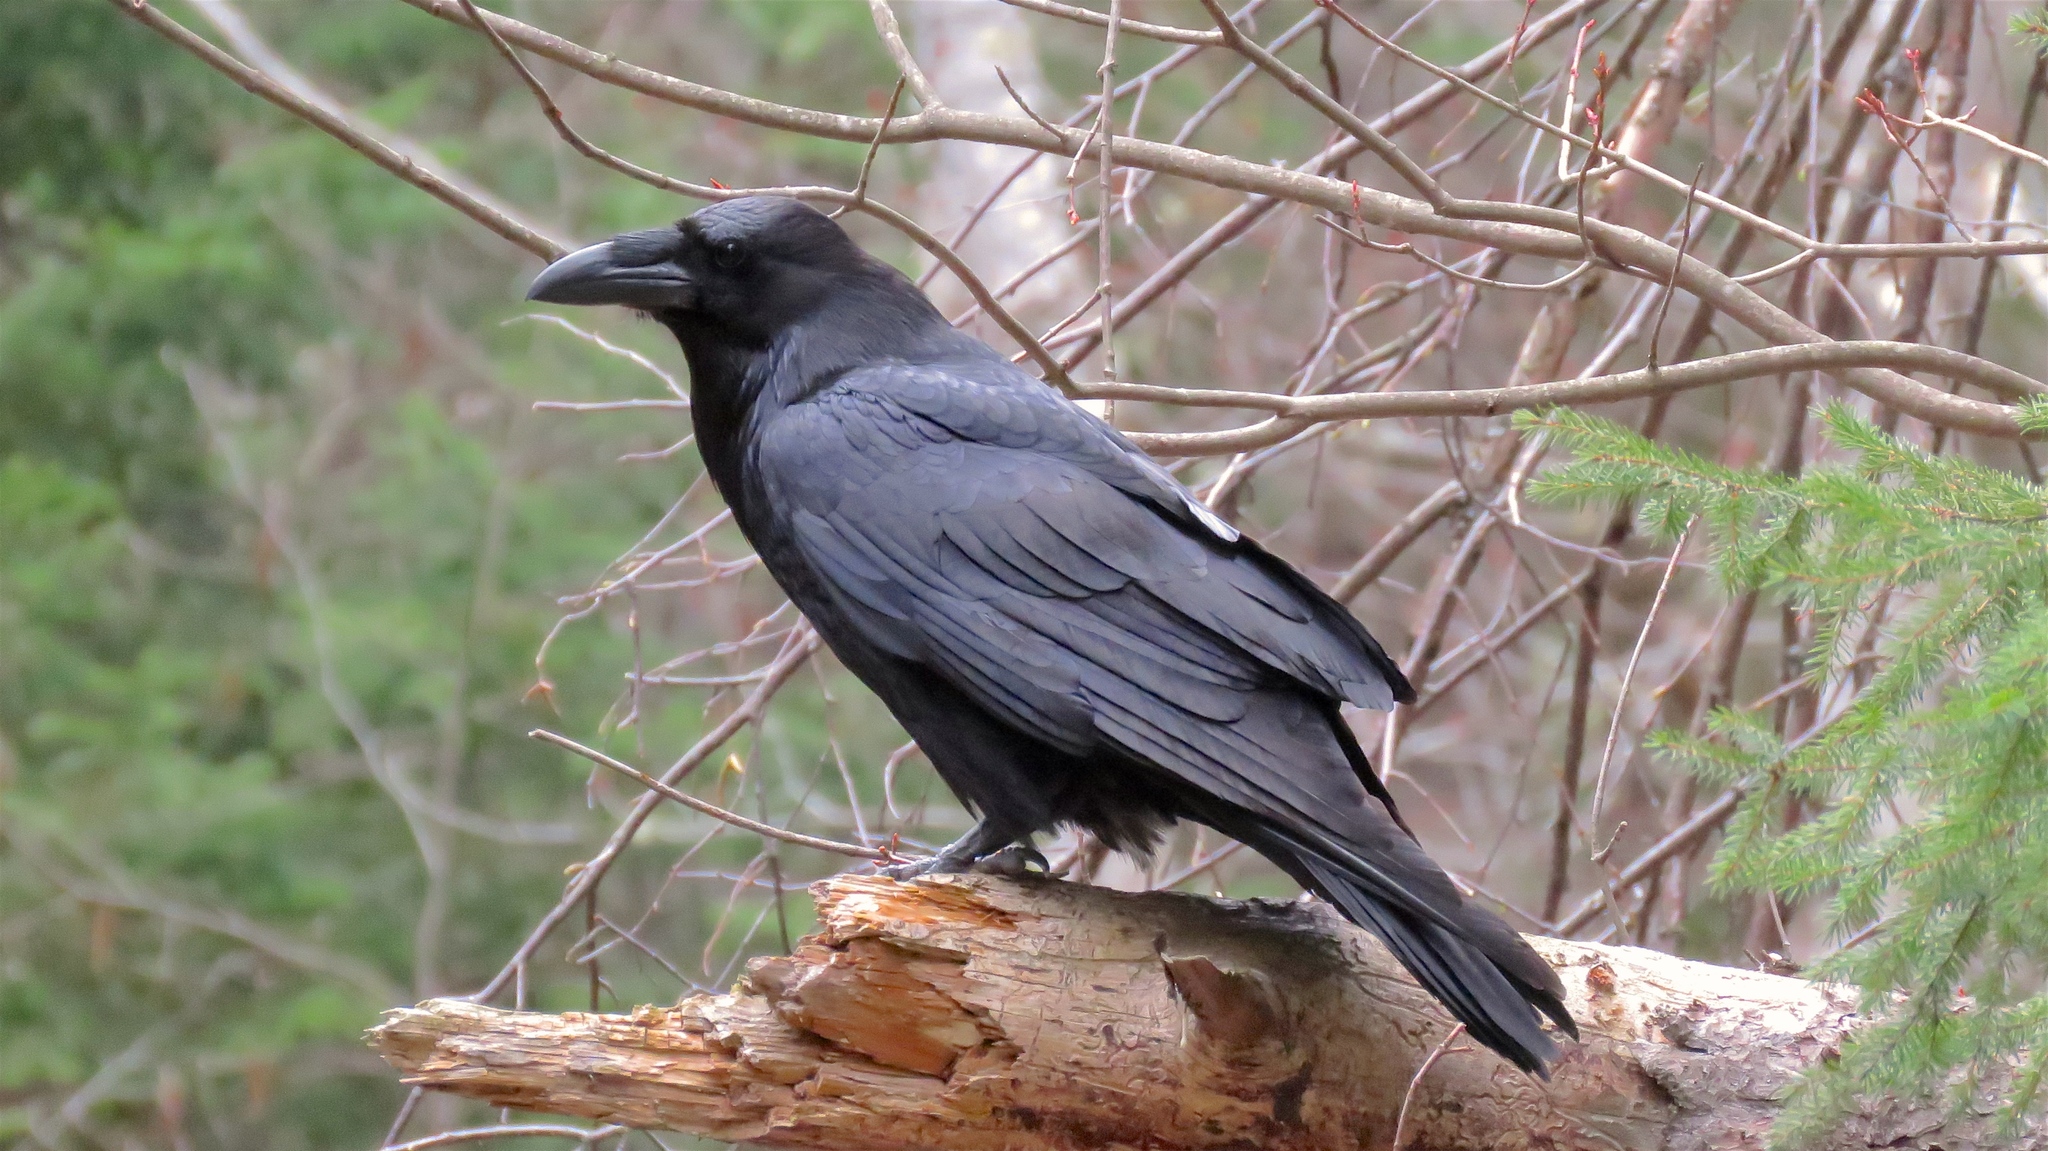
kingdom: Animalia
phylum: Chordata
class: Aves
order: Passeriformes
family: Corvidae
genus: Corvus
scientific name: Corvus corax
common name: Common raven
